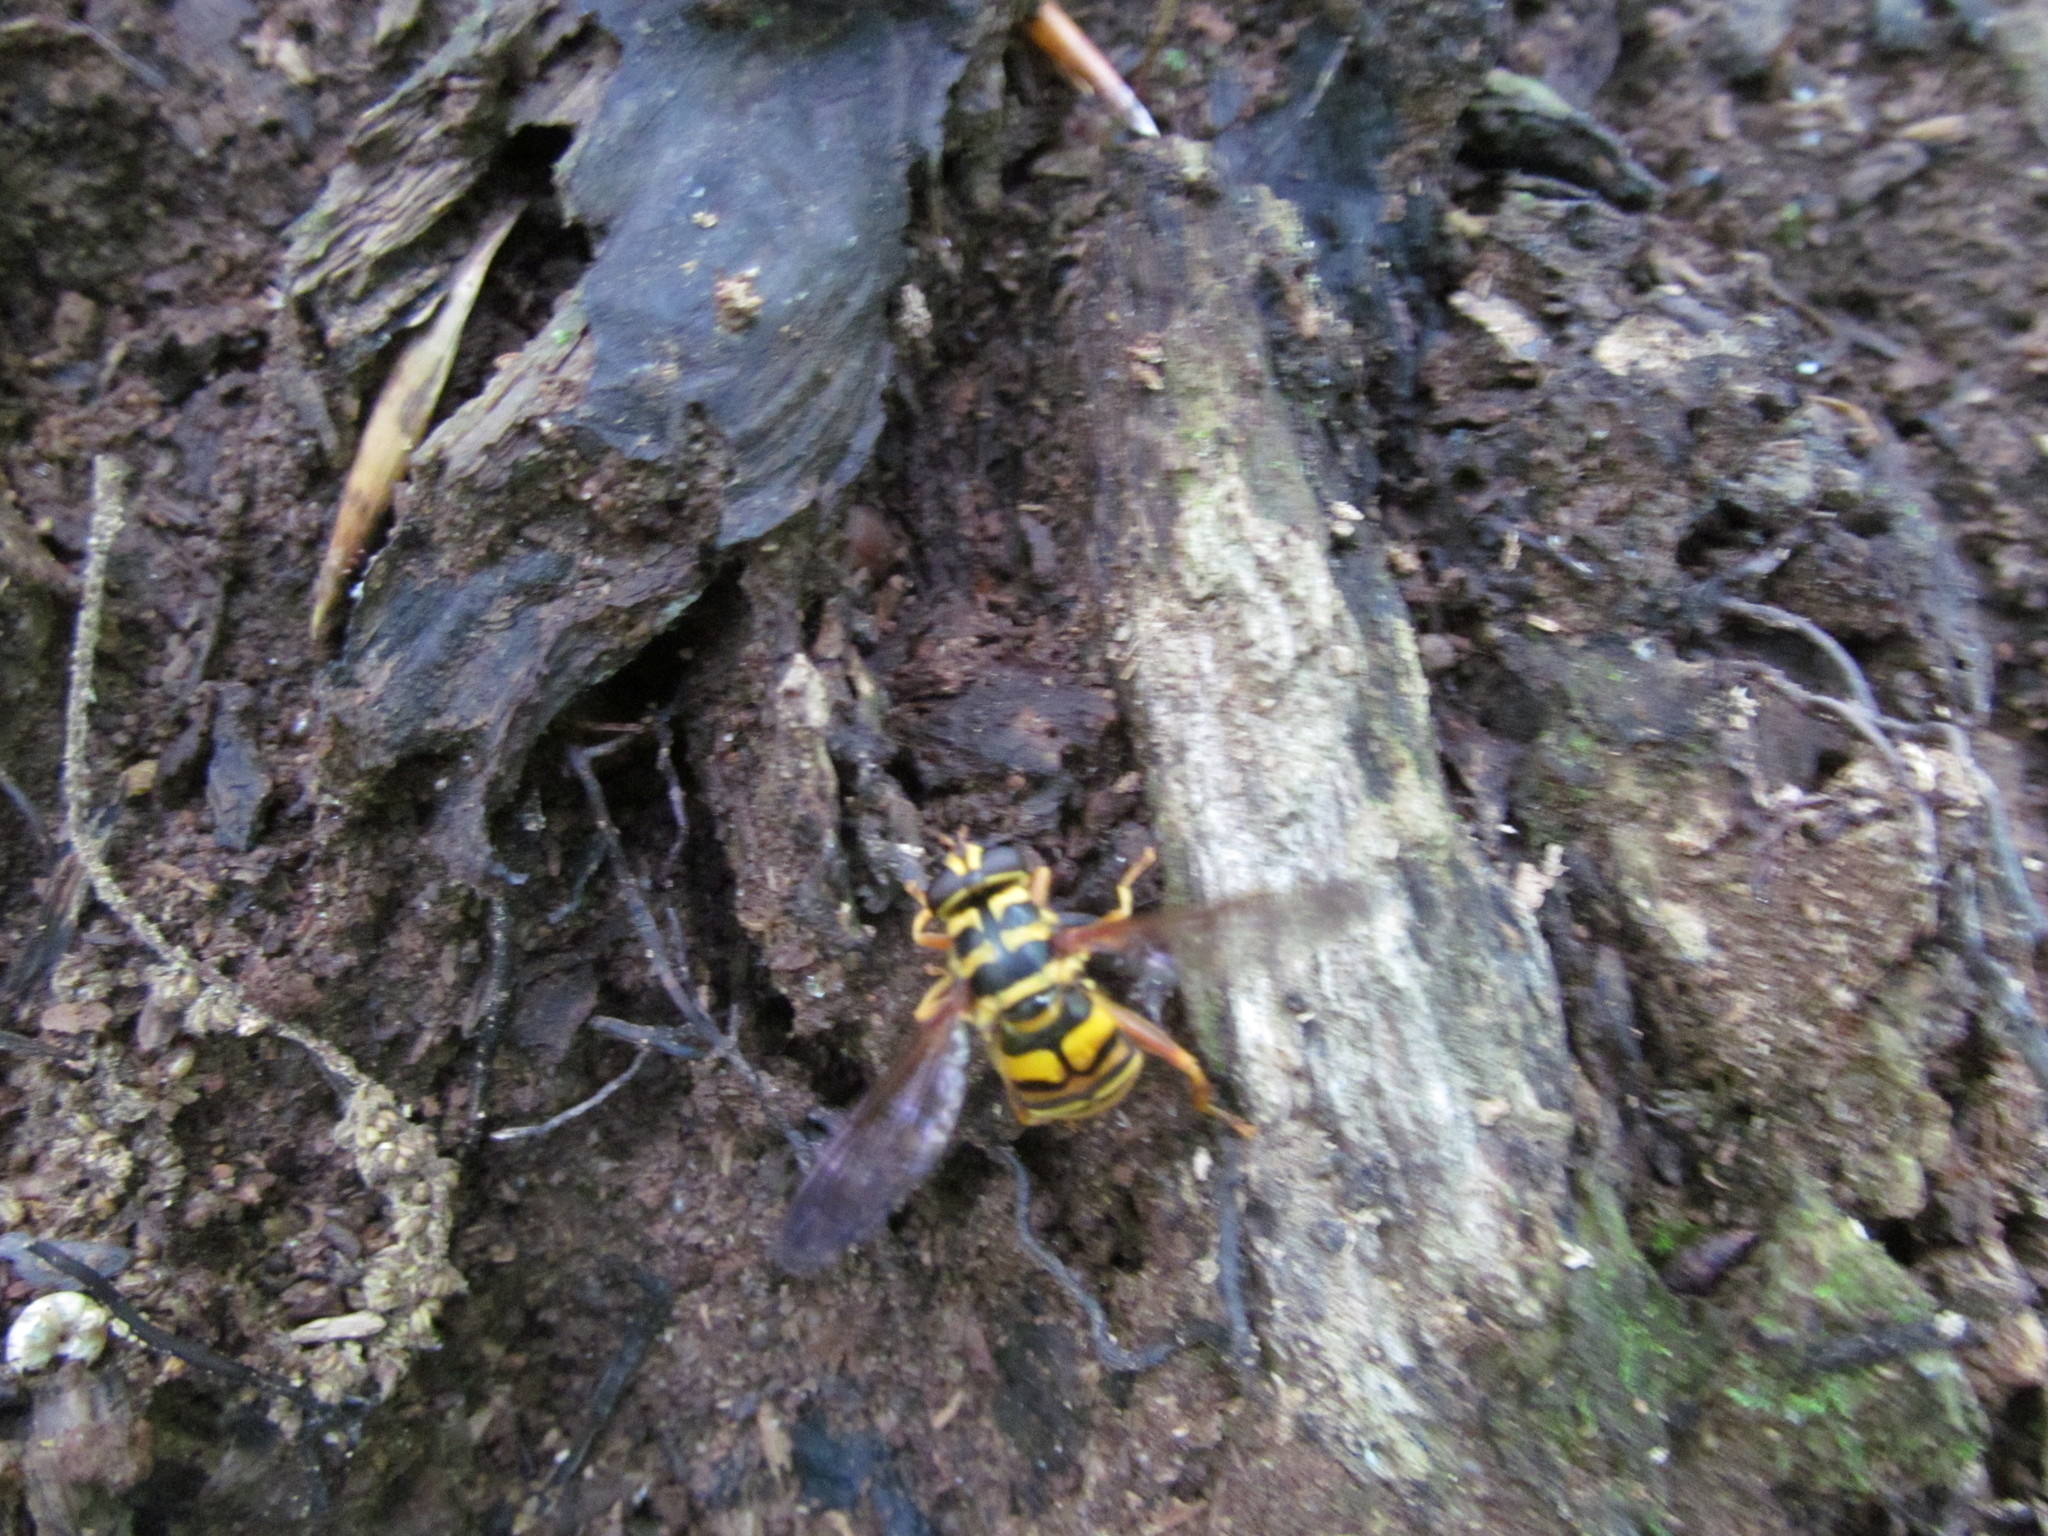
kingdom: Animalia
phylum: Arthropoda
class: Insecta
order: Diptera
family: Syrphidae
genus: Milesia
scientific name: Milesia virginiensis
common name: Virginia giant
